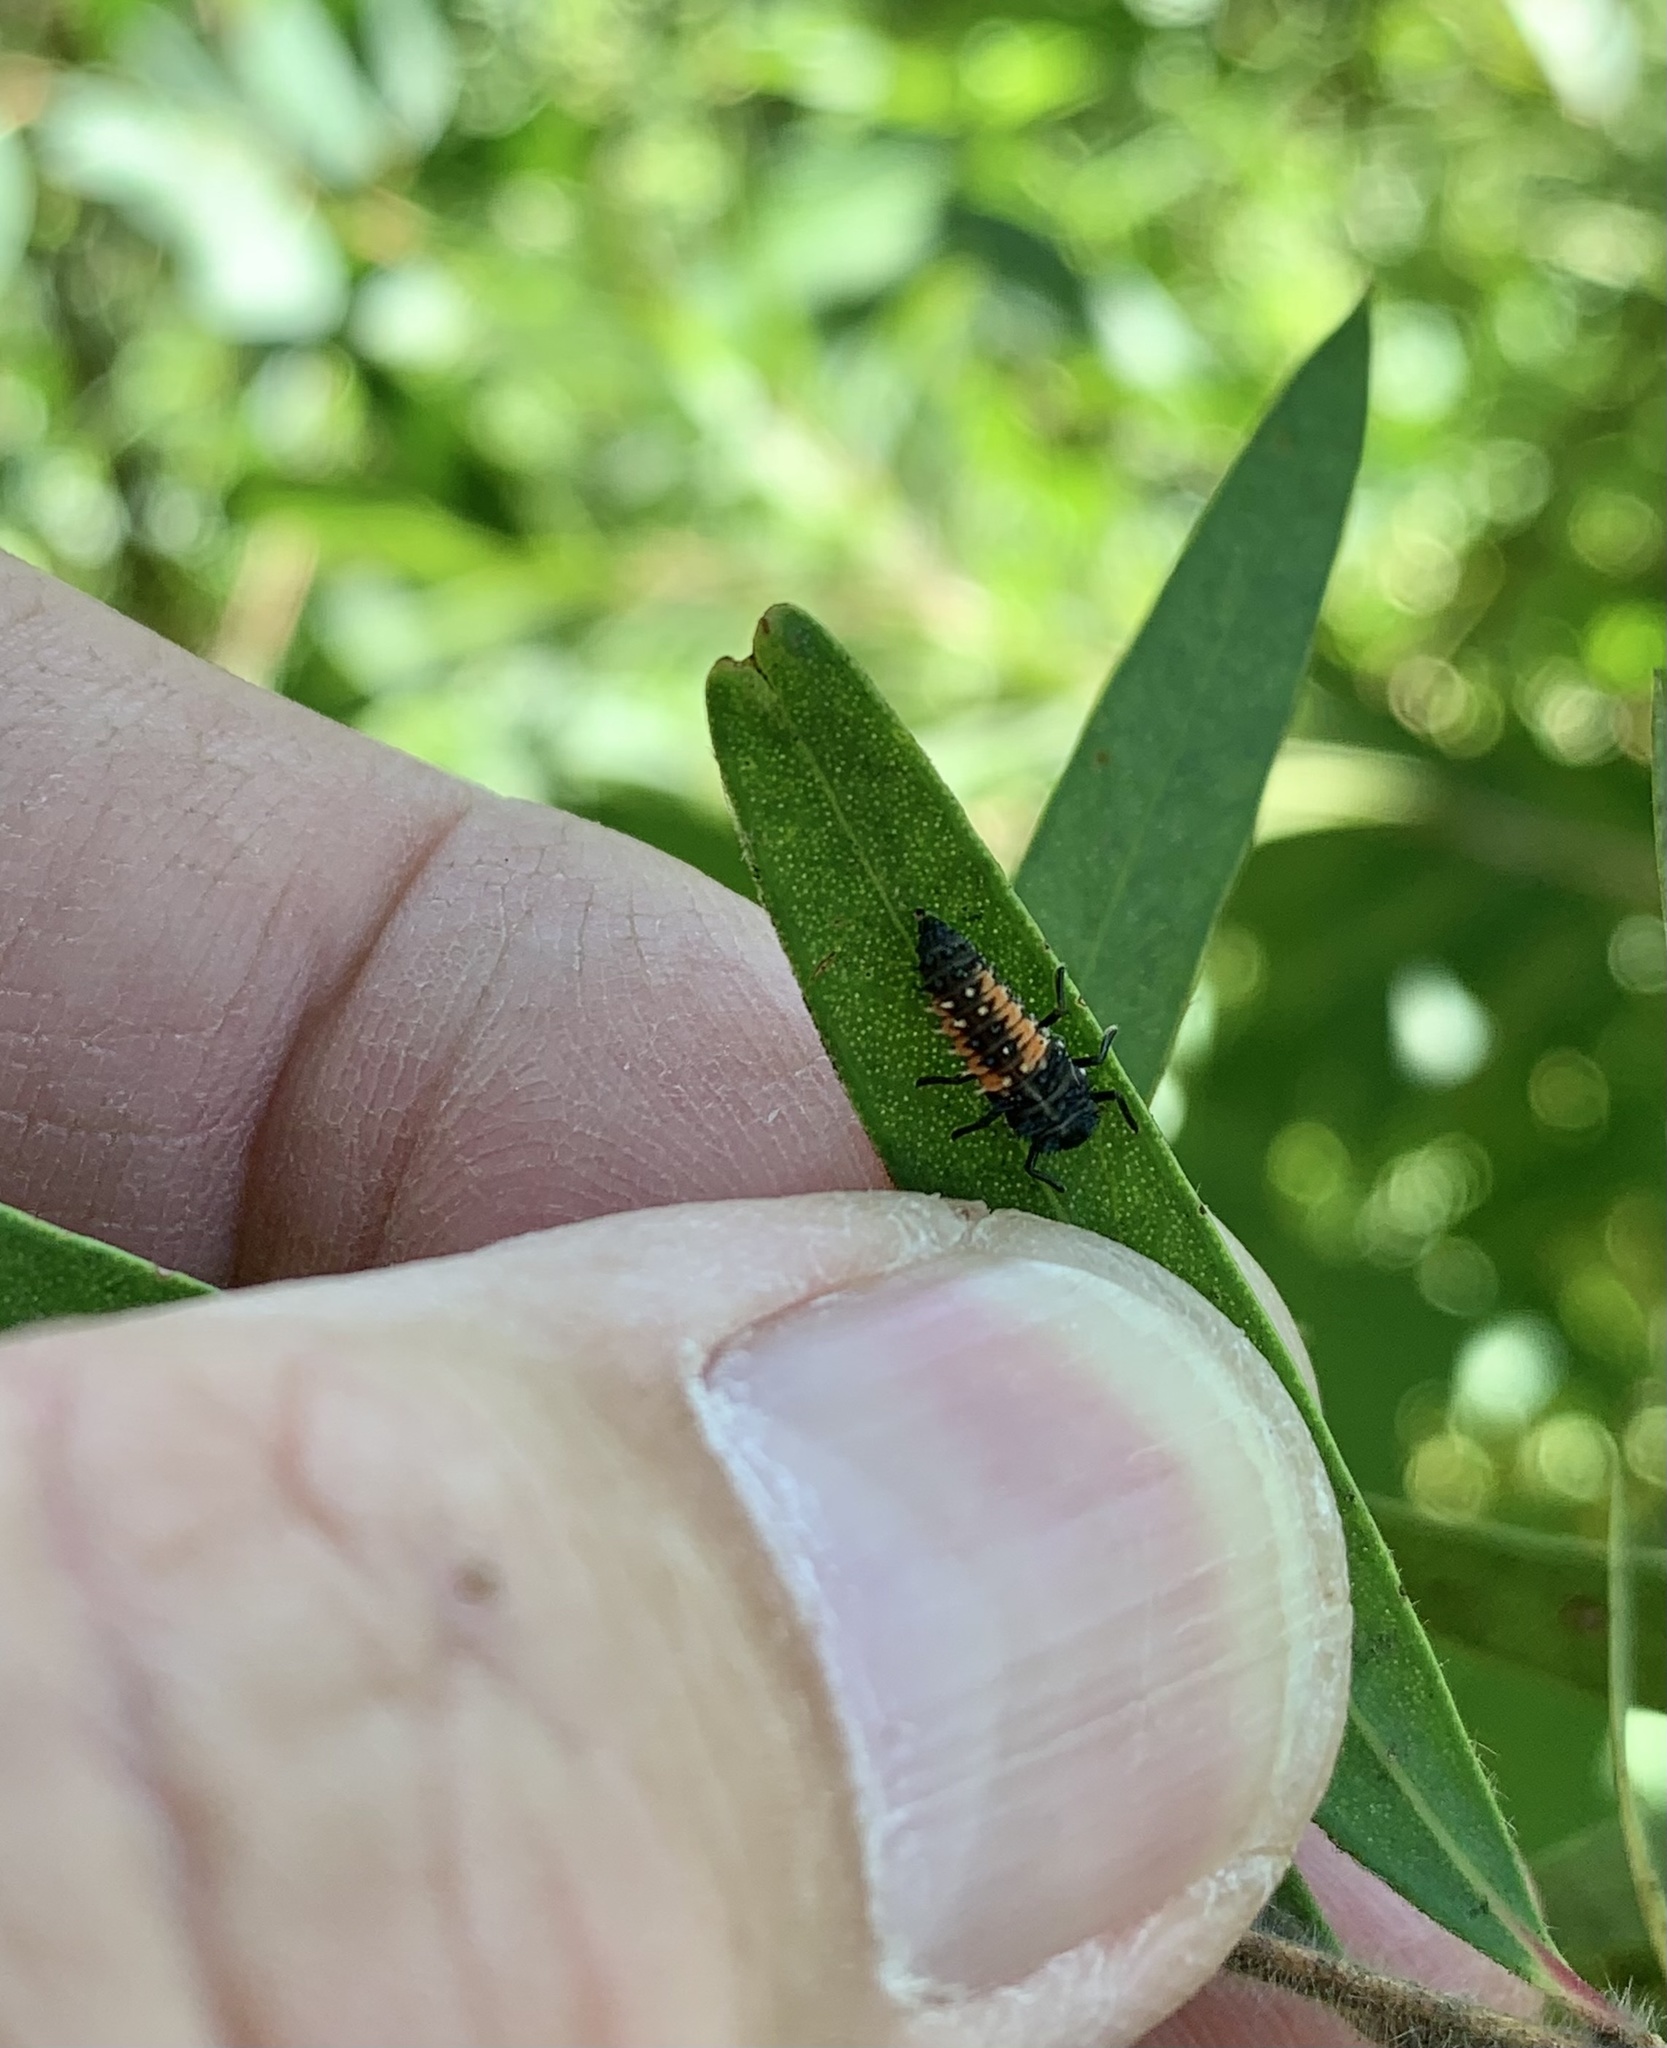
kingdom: Animalia
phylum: Arthropoda
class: Insecta
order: Coleoptera
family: Coccinellidae
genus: Harmonia
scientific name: Harmonia axyridis
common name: Harlequin ladybird
